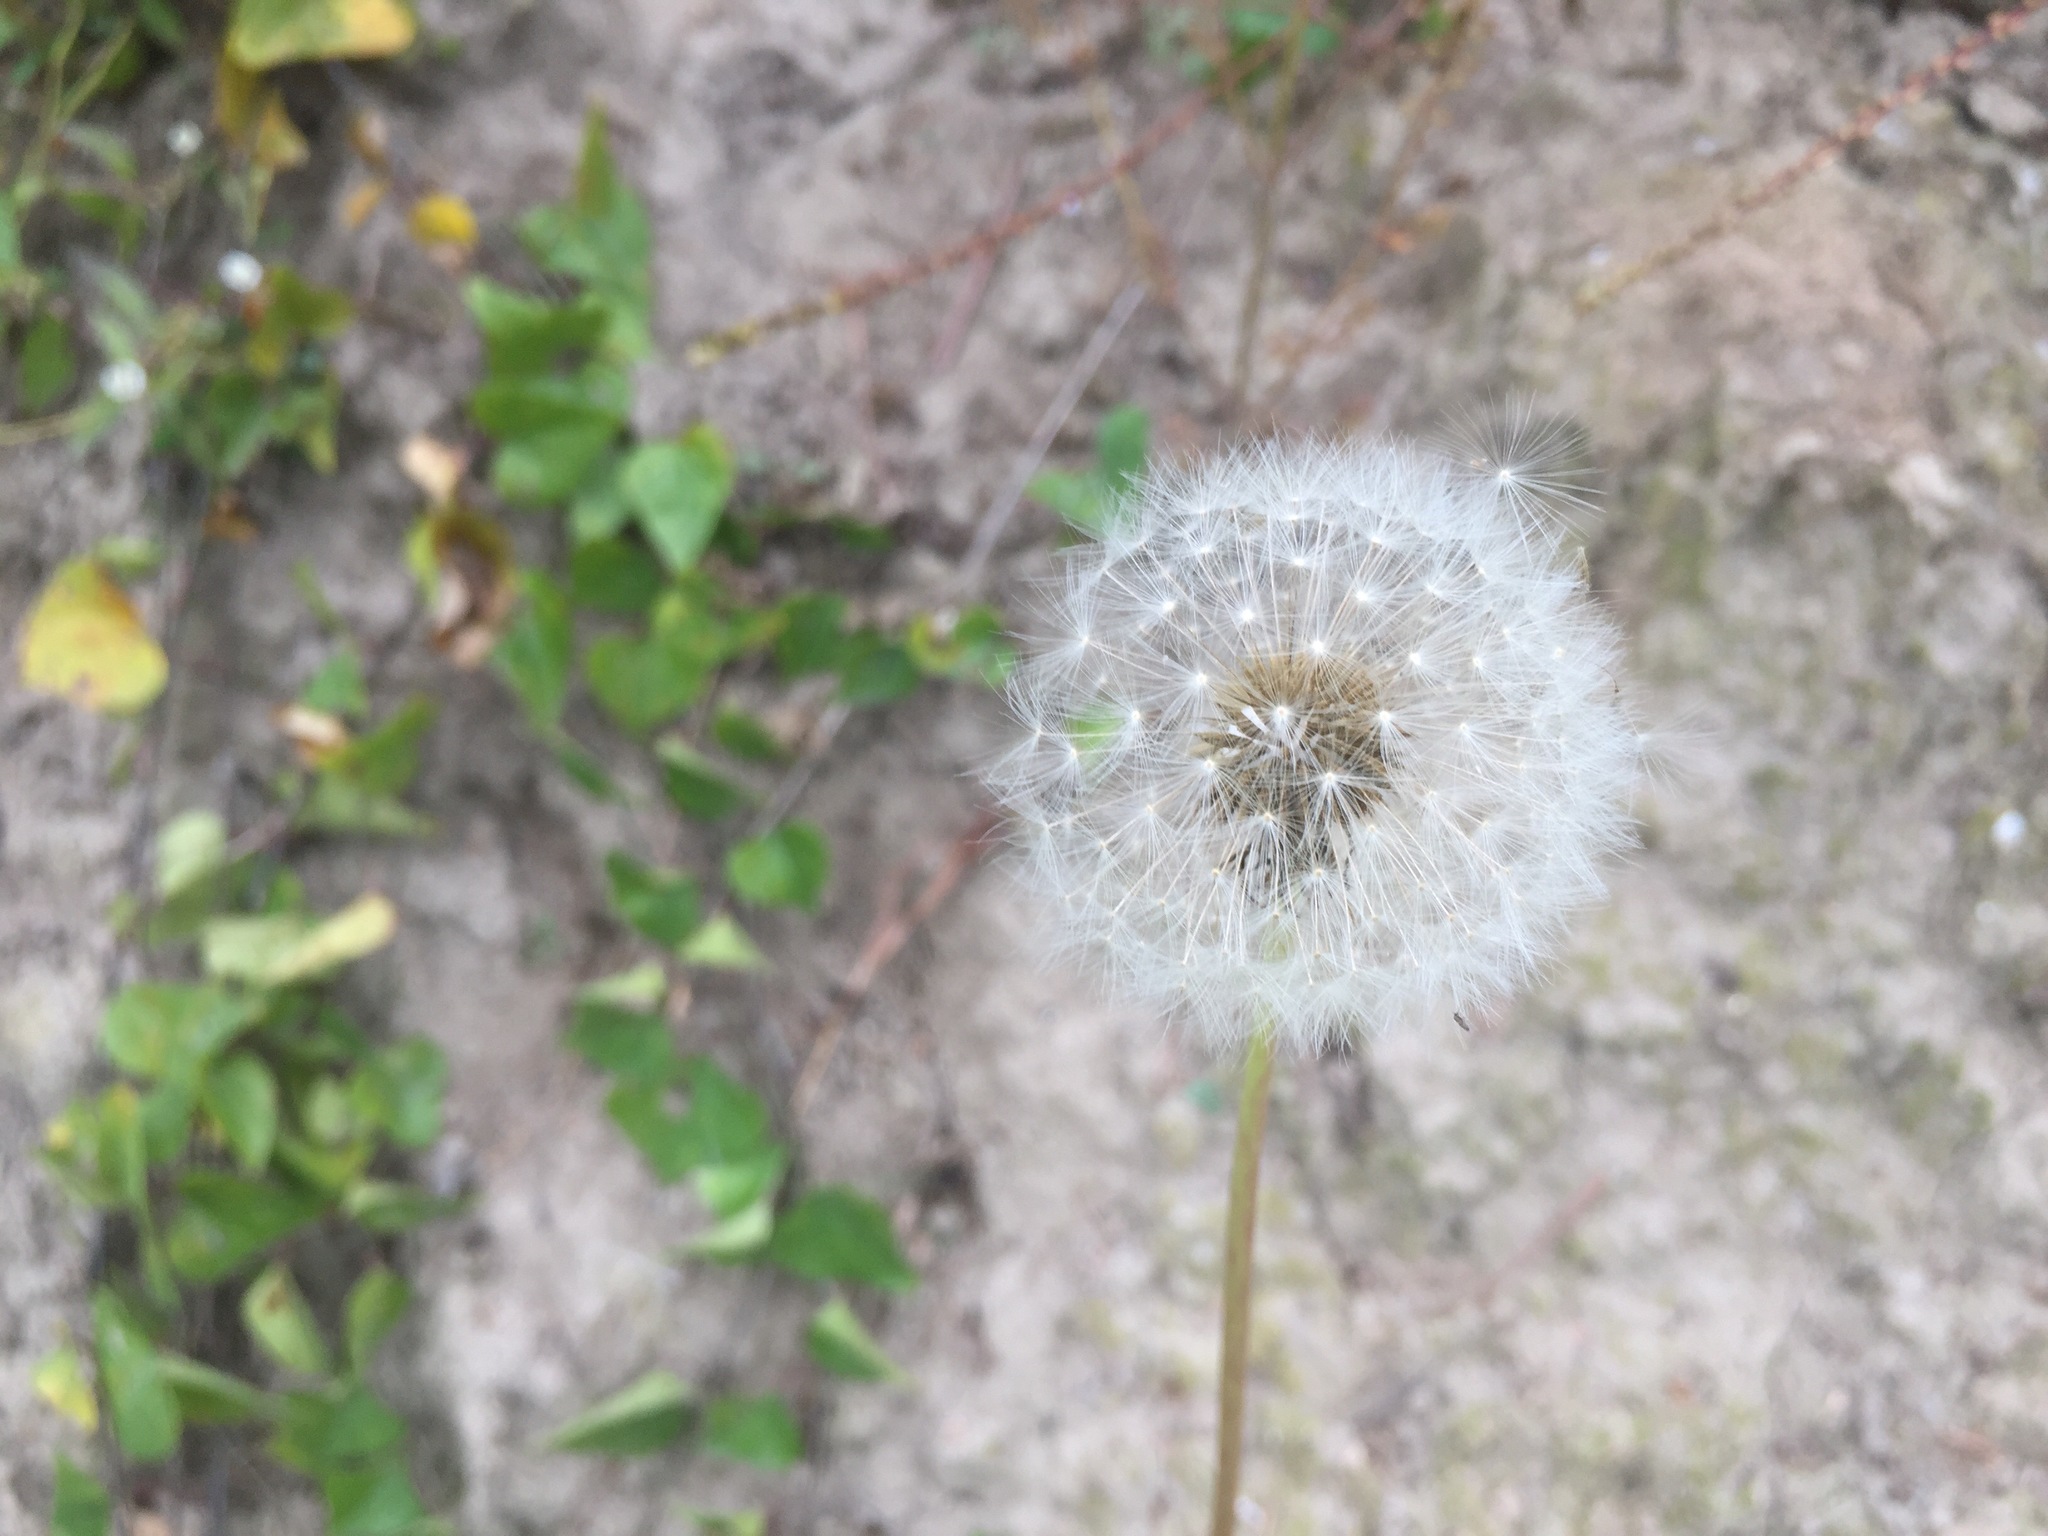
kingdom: Plantae
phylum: Tracheophyta
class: Magnoliopsida
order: Asterales
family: Asteraceae
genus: Taraxacum
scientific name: Taraxacum officinale
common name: Common dandelion
